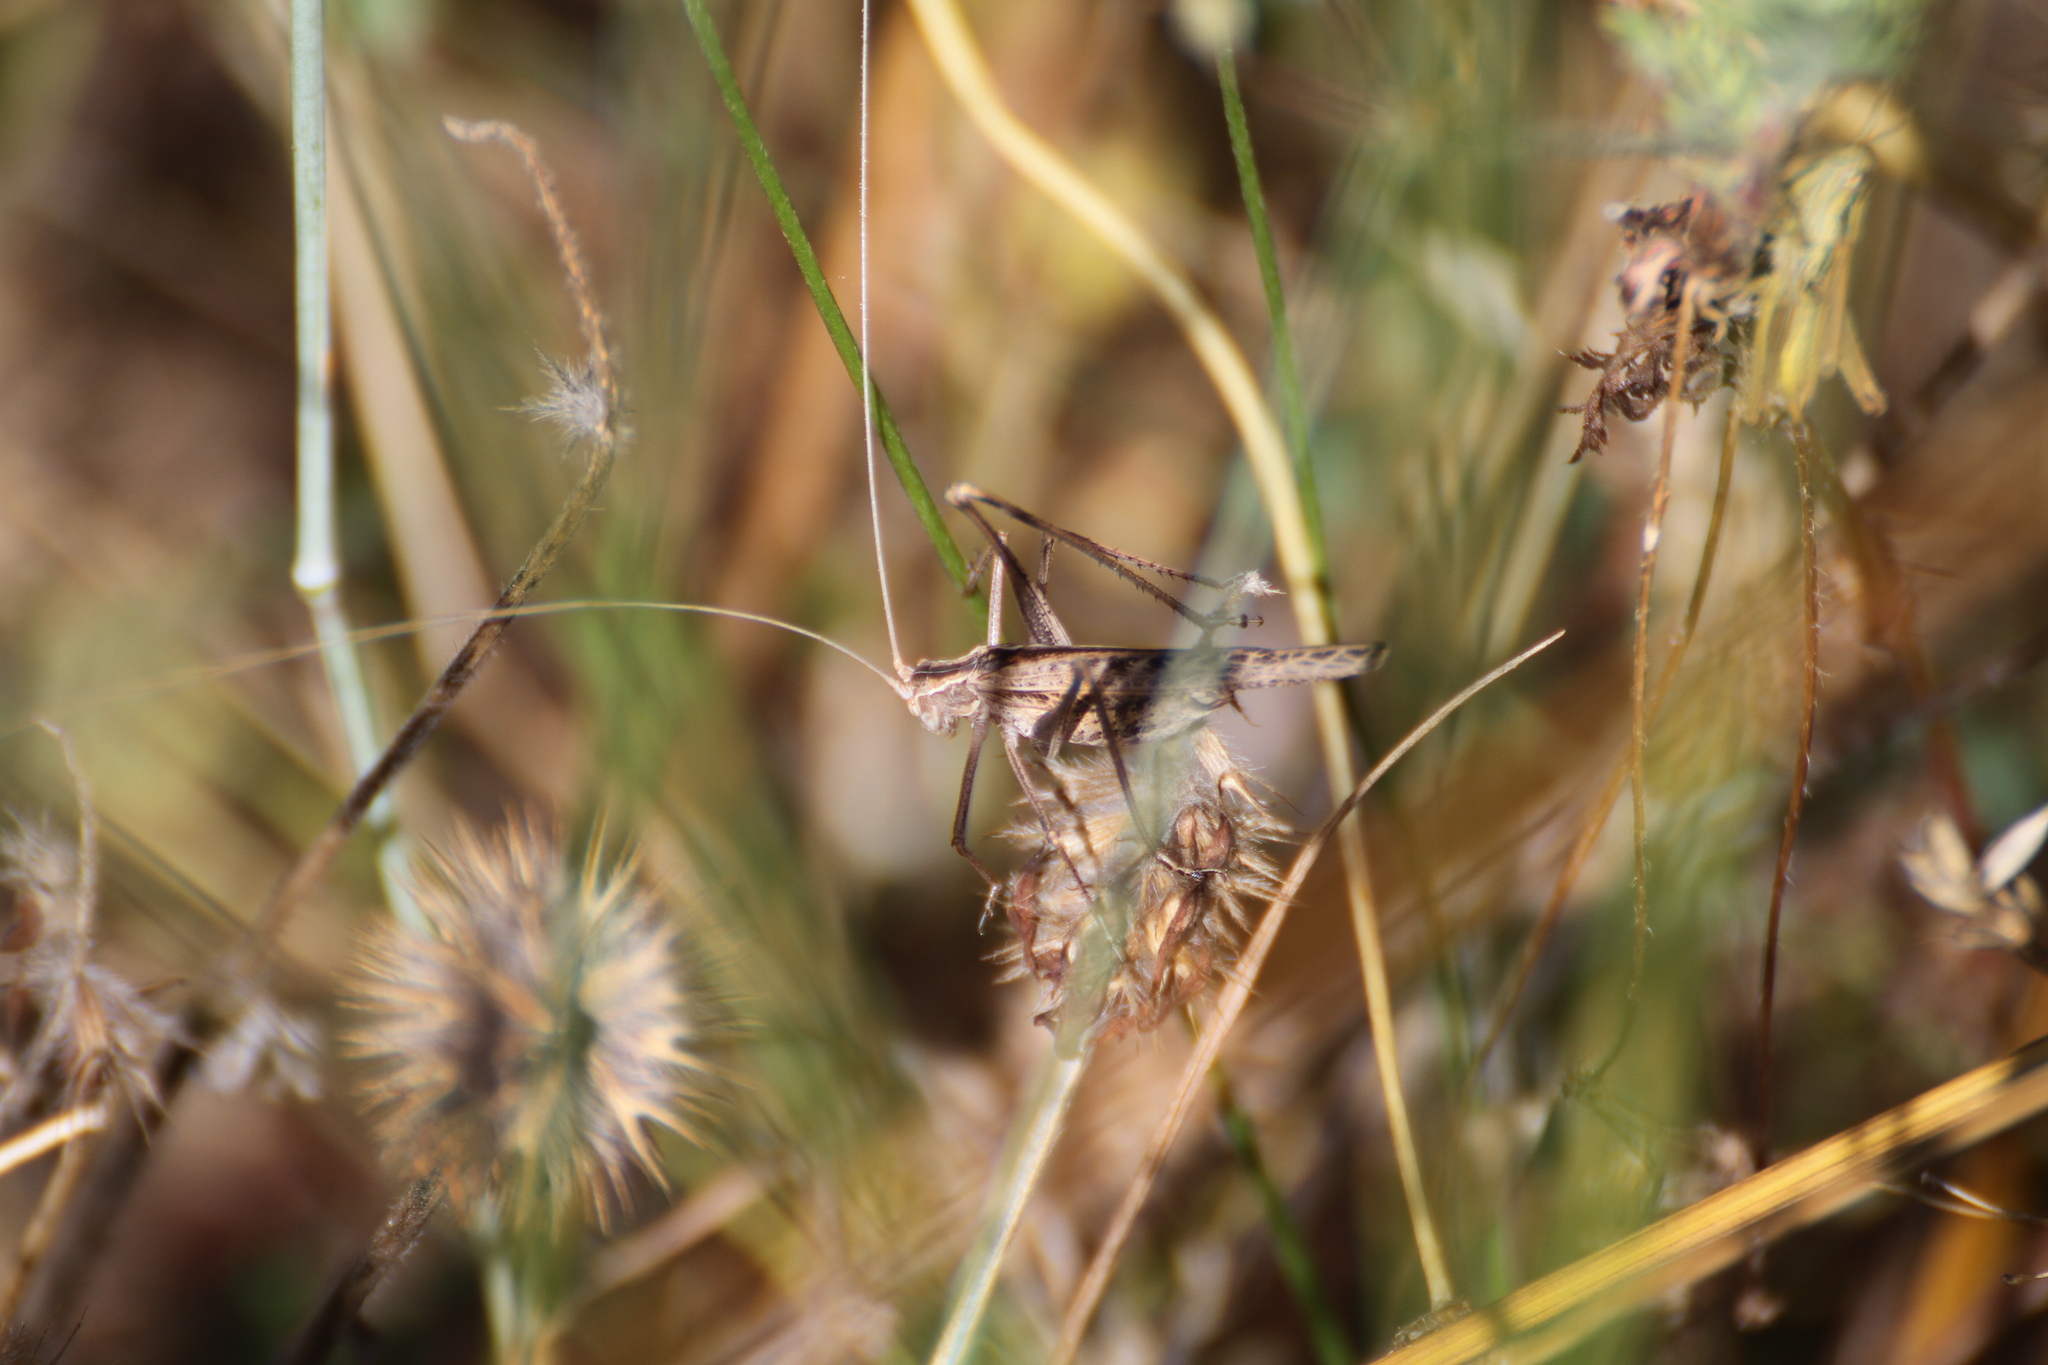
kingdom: Animalia
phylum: Arthropoda
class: Insecta
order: Orthoptera
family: Tettigoniidae
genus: Tylopsis
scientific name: Tylopsis lilifolia
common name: Lily bush-cricket
